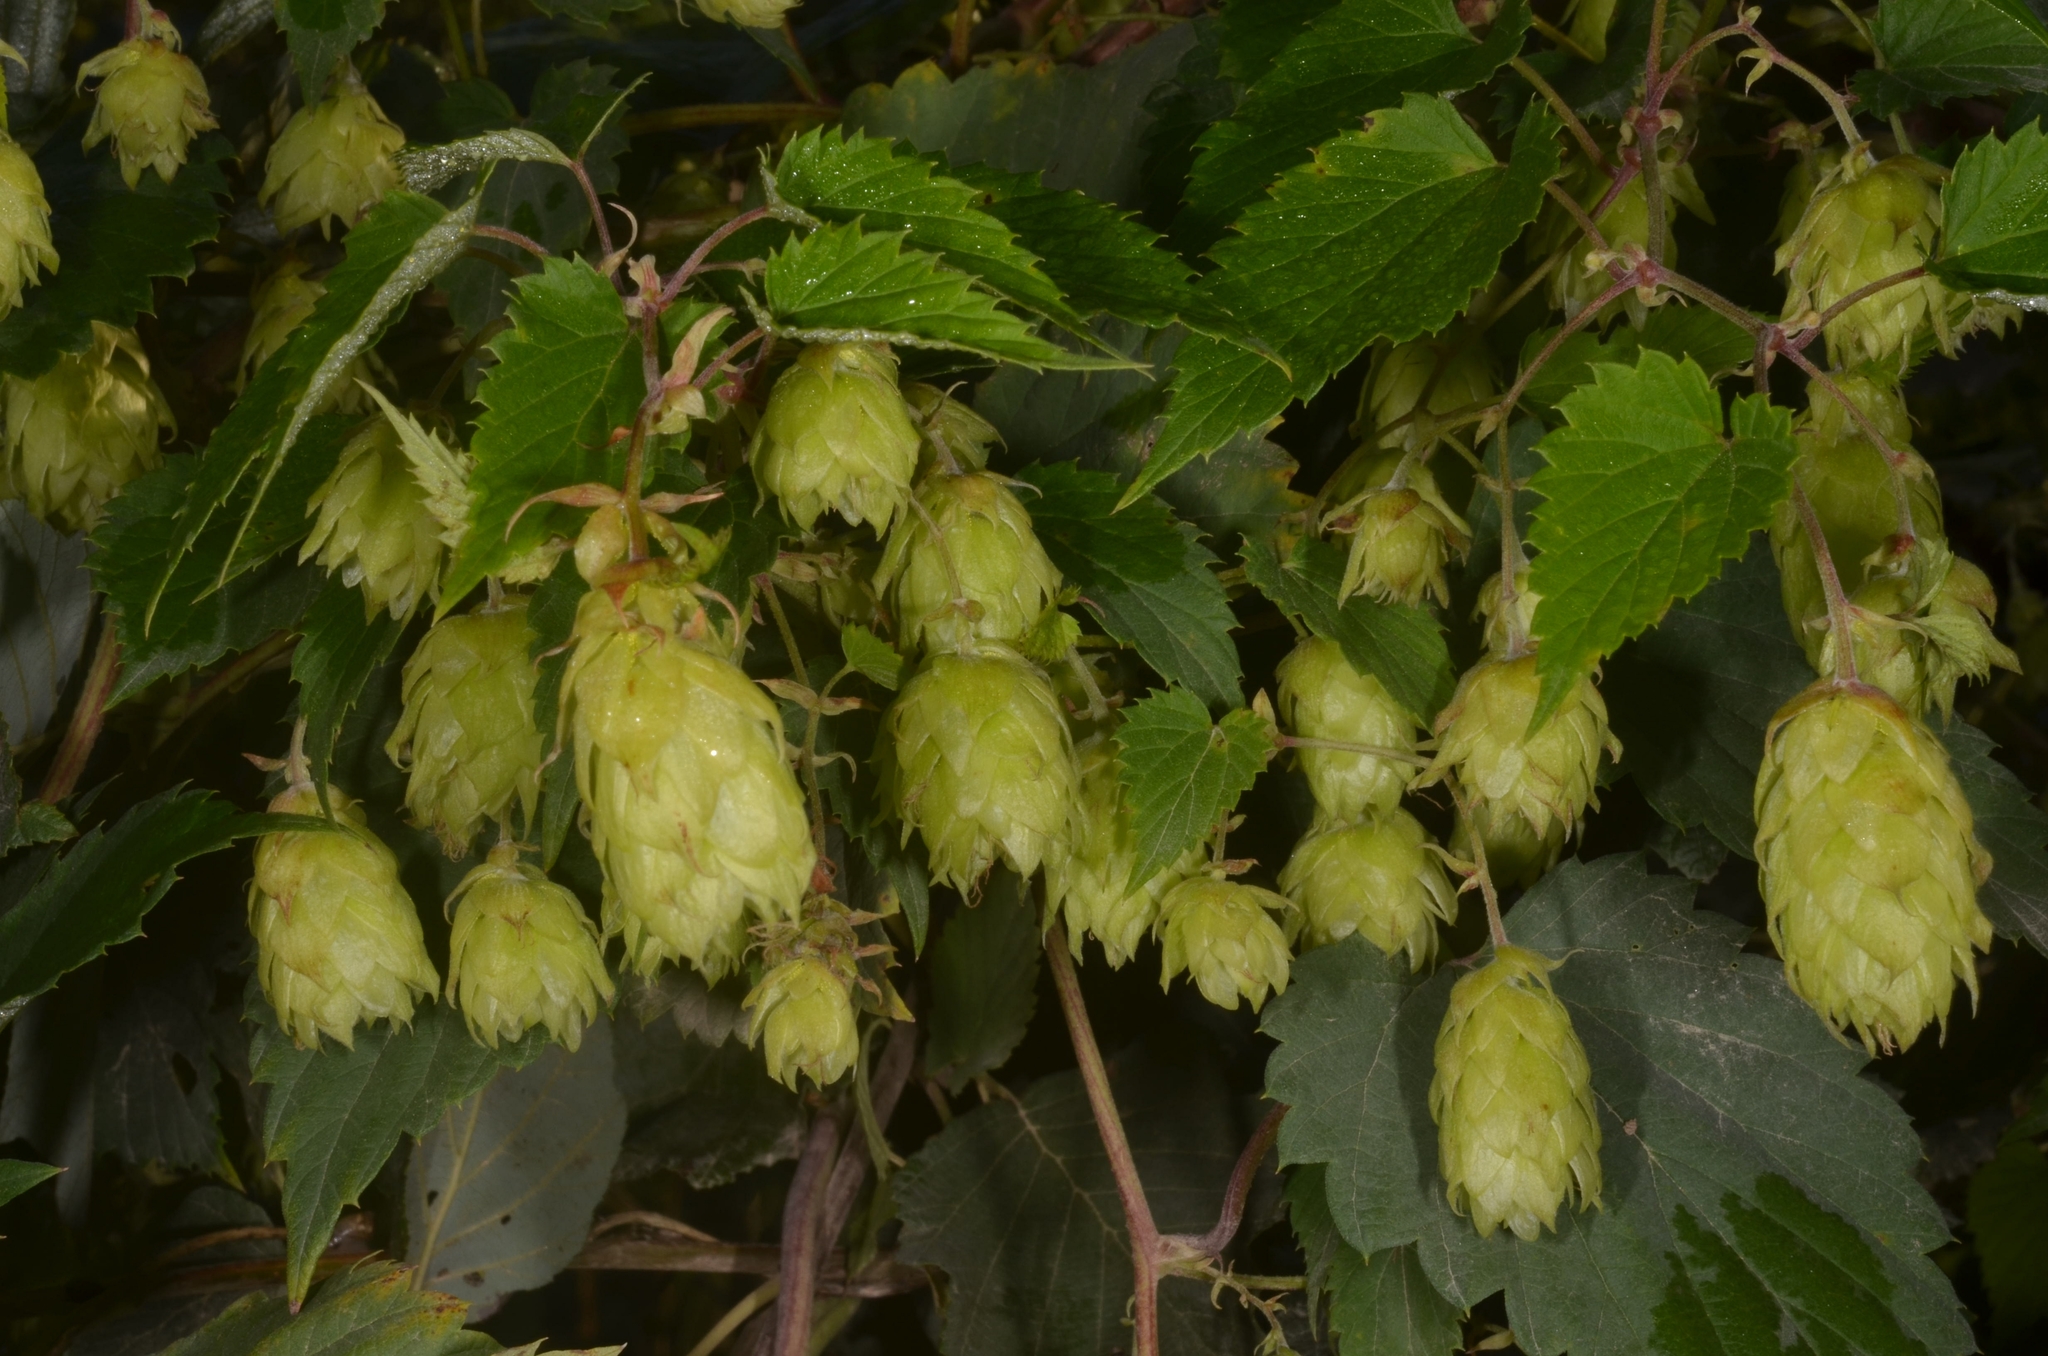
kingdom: Plantae
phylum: Tracheophyta
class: Magnoliopsida
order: Rosales
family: Cannabaceae
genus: Humulus
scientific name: Humulus lupulus
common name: Hop
